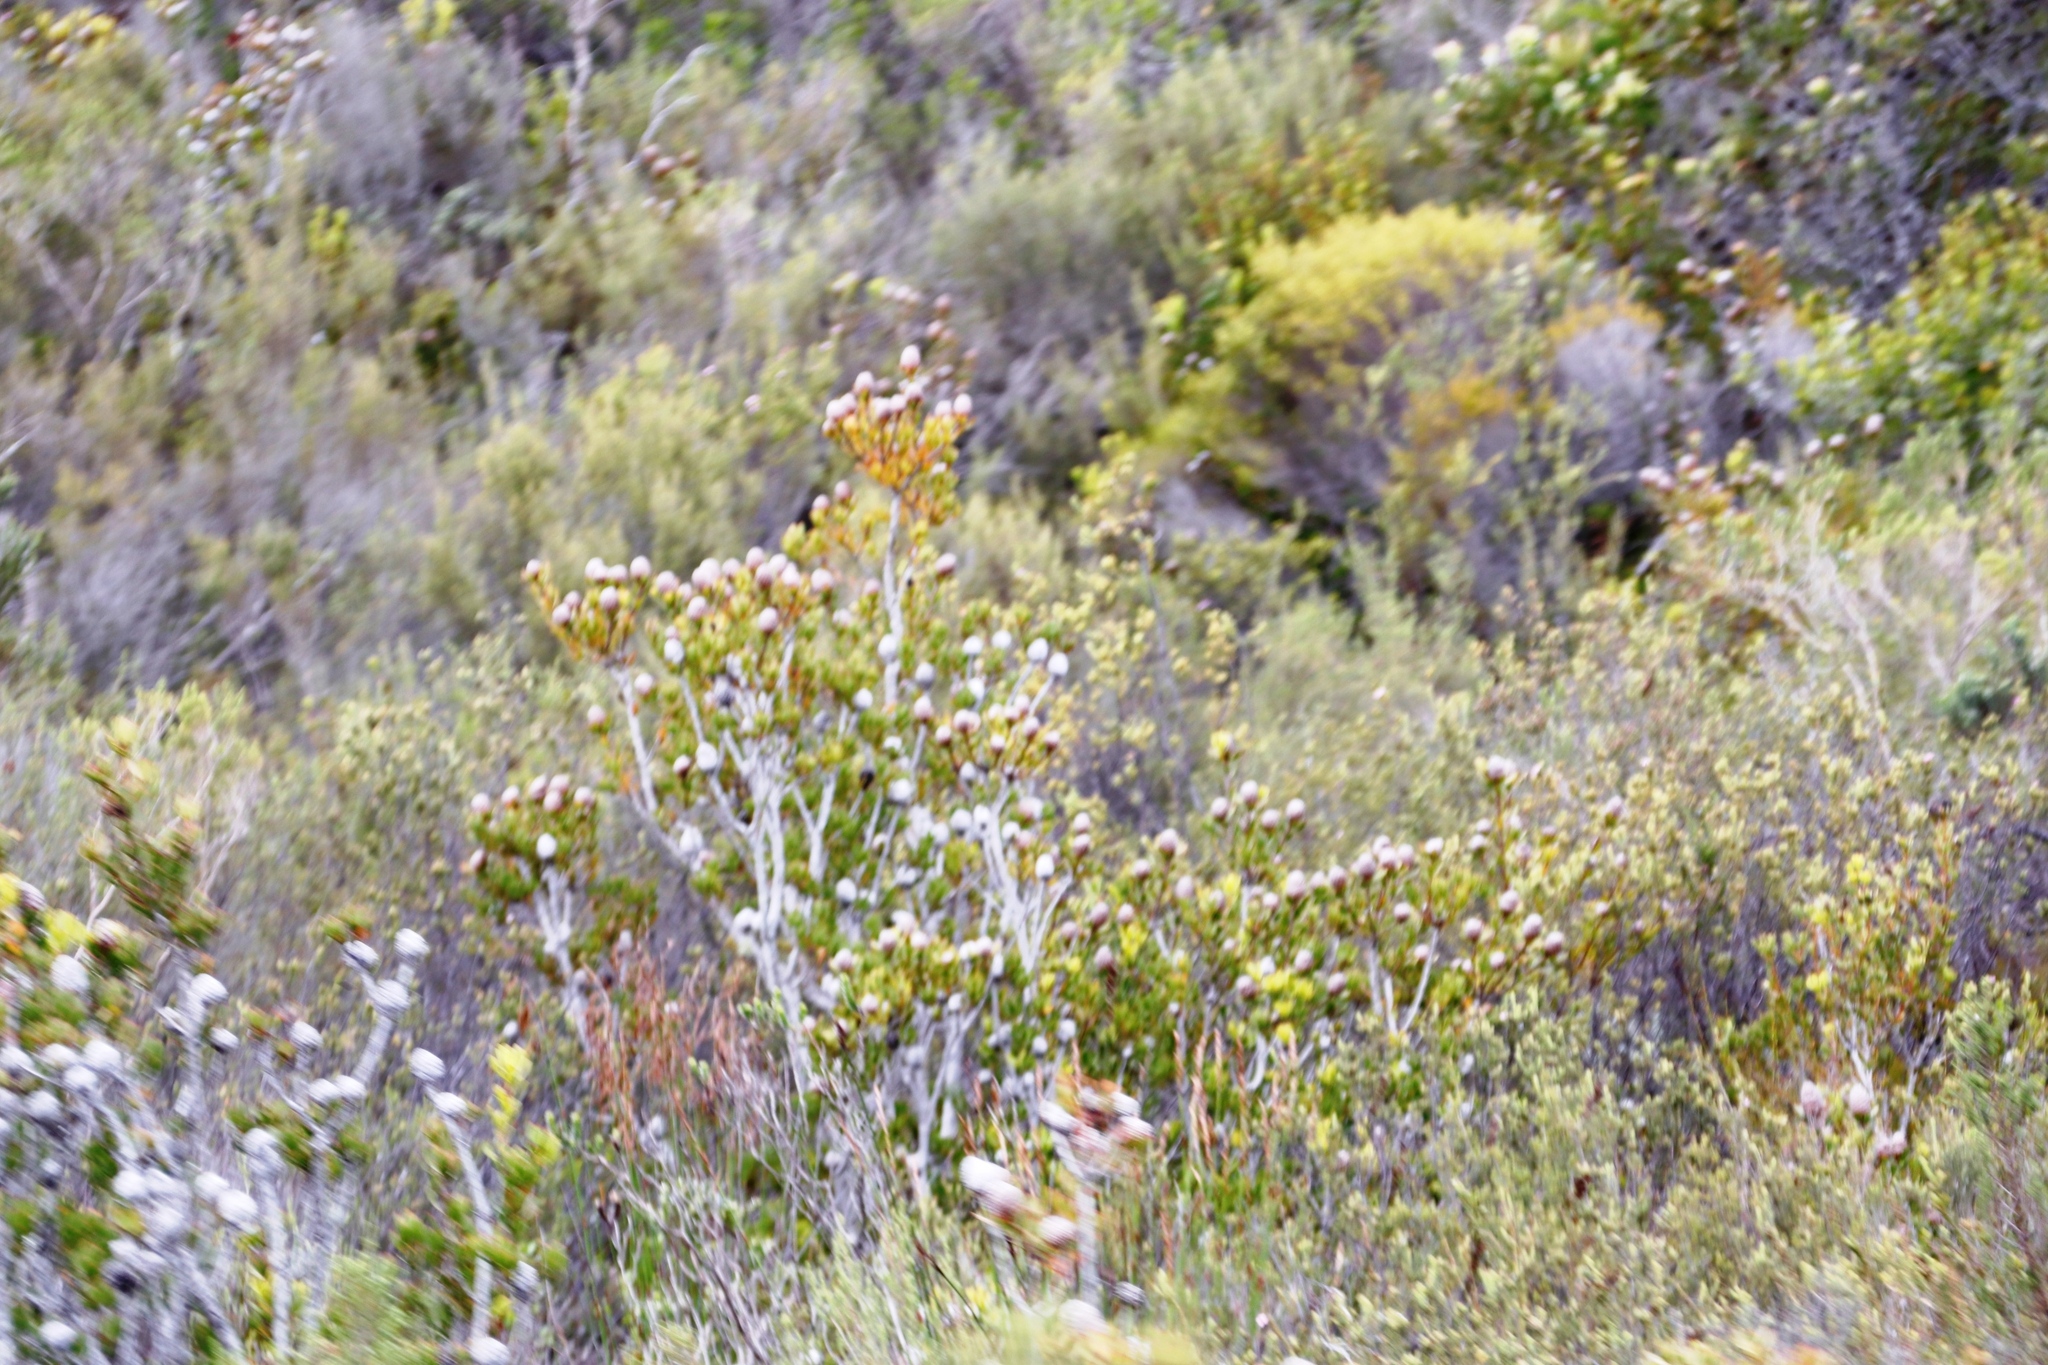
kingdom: Plantae
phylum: Tracheophyta
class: Magnoliopsida
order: Proteales
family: Proteaceae
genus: Leucadendron
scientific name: Leucadendron muirii
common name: Silver-ball conebush
